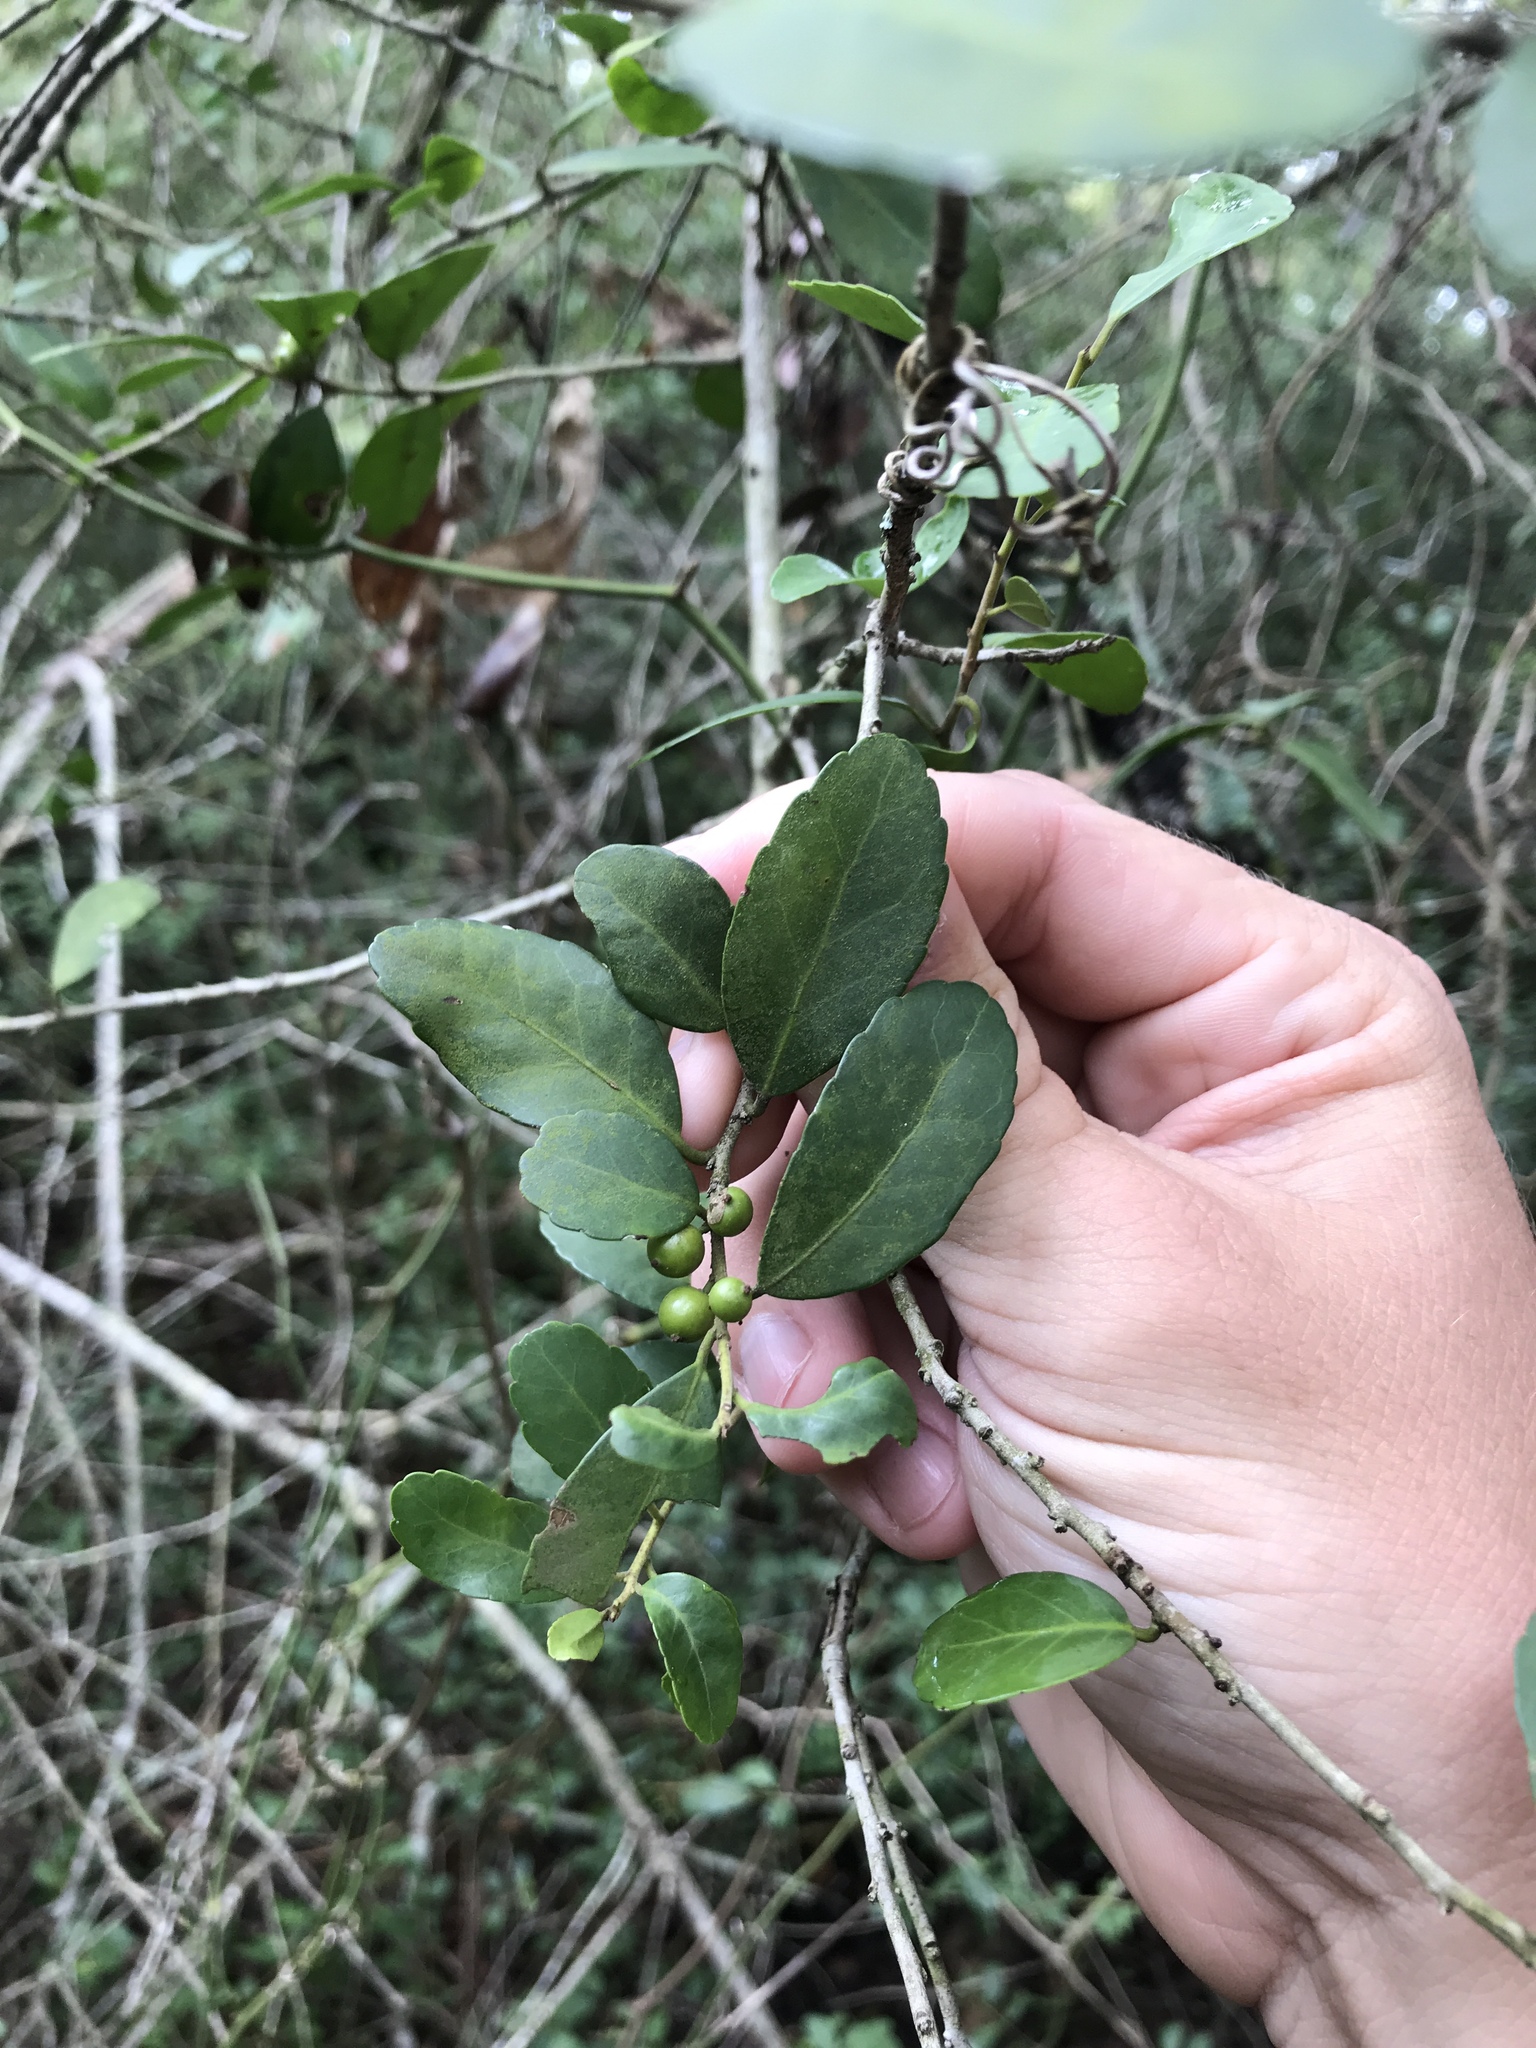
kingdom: Plantae
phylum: Tracheophyta
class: Magnoliopsida
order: Aquifoliales
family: Aquifoliaceae
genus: Ilex
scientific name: Ilex vomitoria
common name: Yaupon holly
